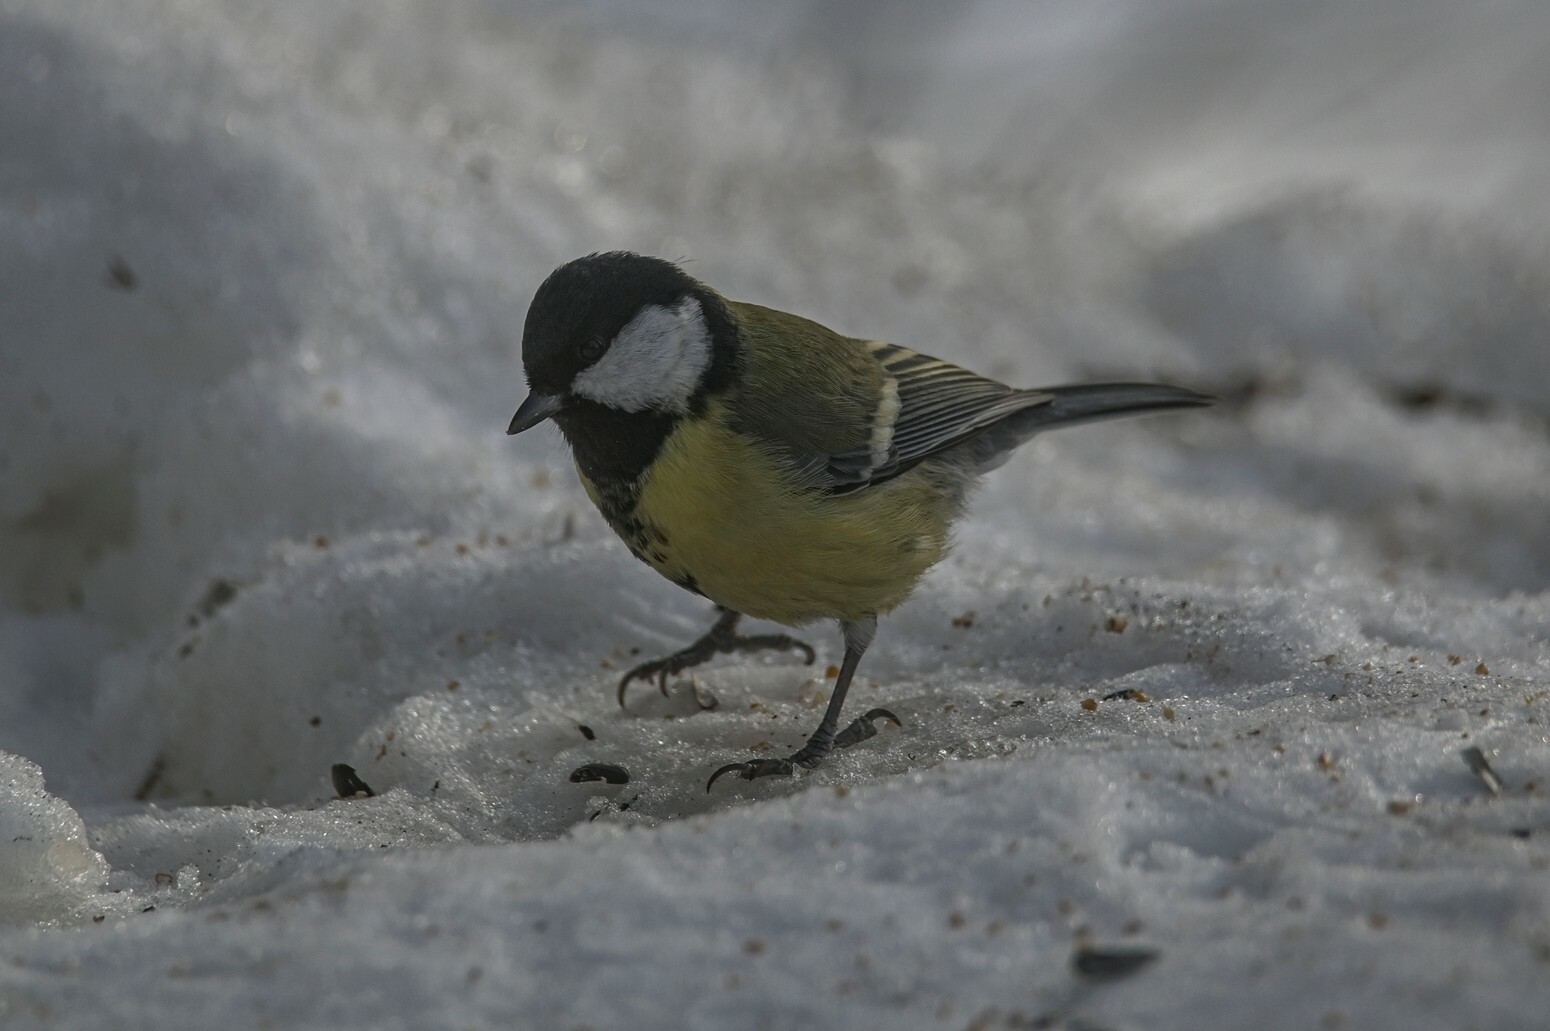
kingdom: Animalia
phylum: Chordata
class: Aves
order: Passeriformes
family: Paridae
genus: Parus
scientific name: Parus major
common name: Great tit
